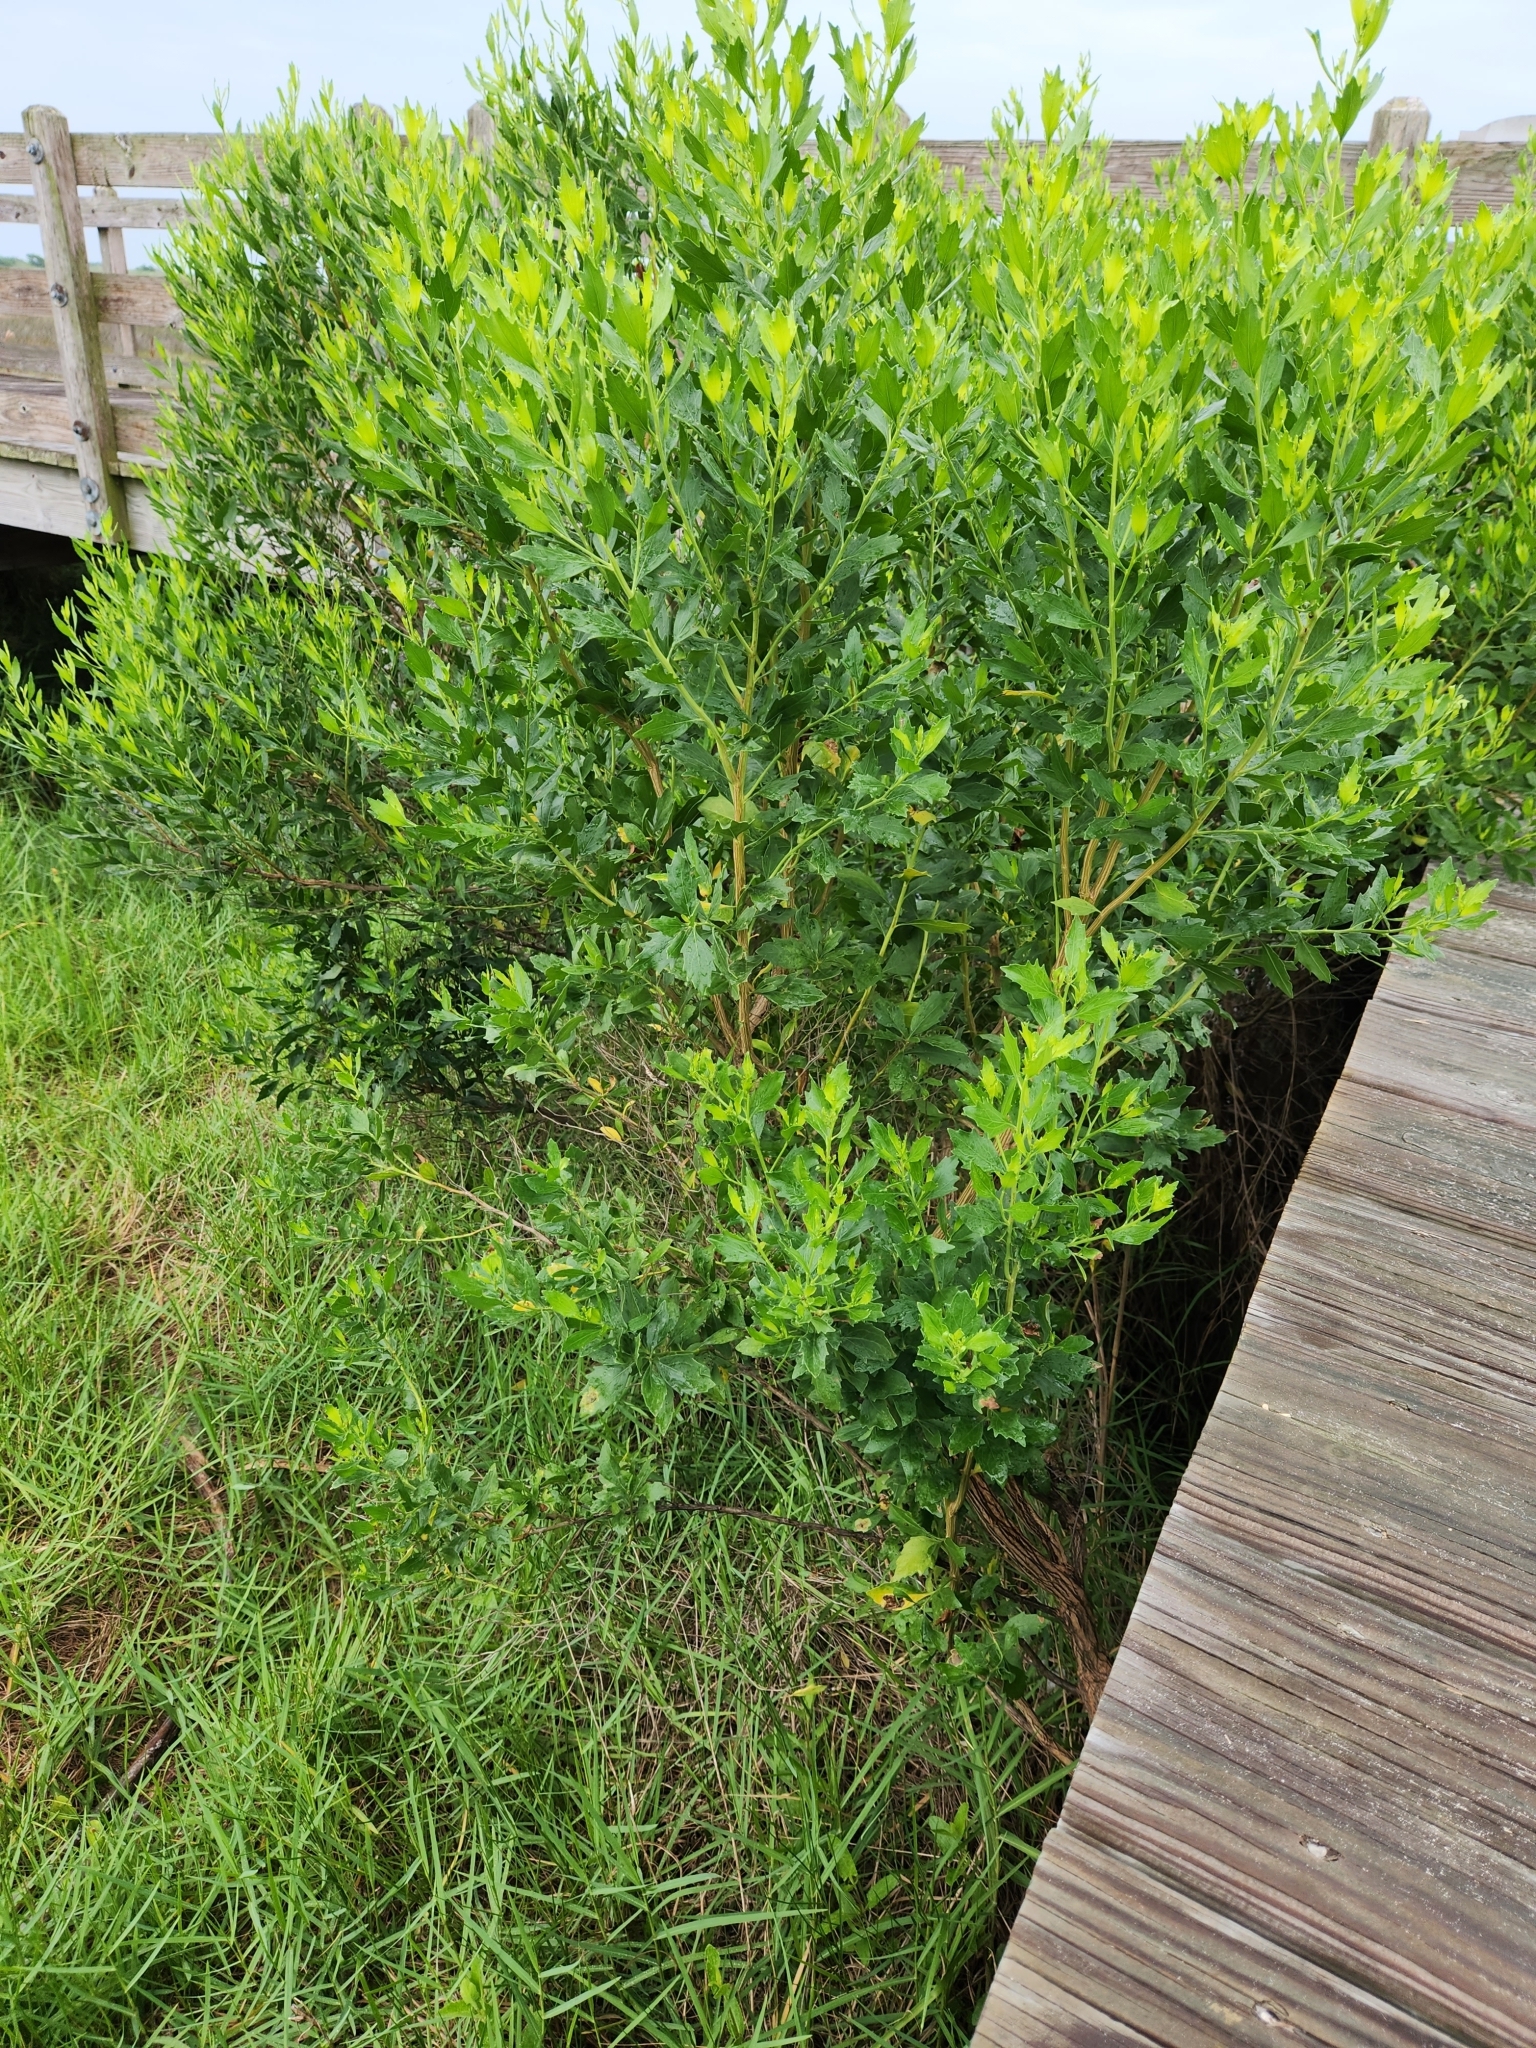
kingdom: Plantae
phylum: Tracheophyta
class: Magnoliopsida
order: Asterales
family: Asteraceae
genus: Baccharis
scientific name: Baccharis halimifolia
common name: Eastern baccharis
